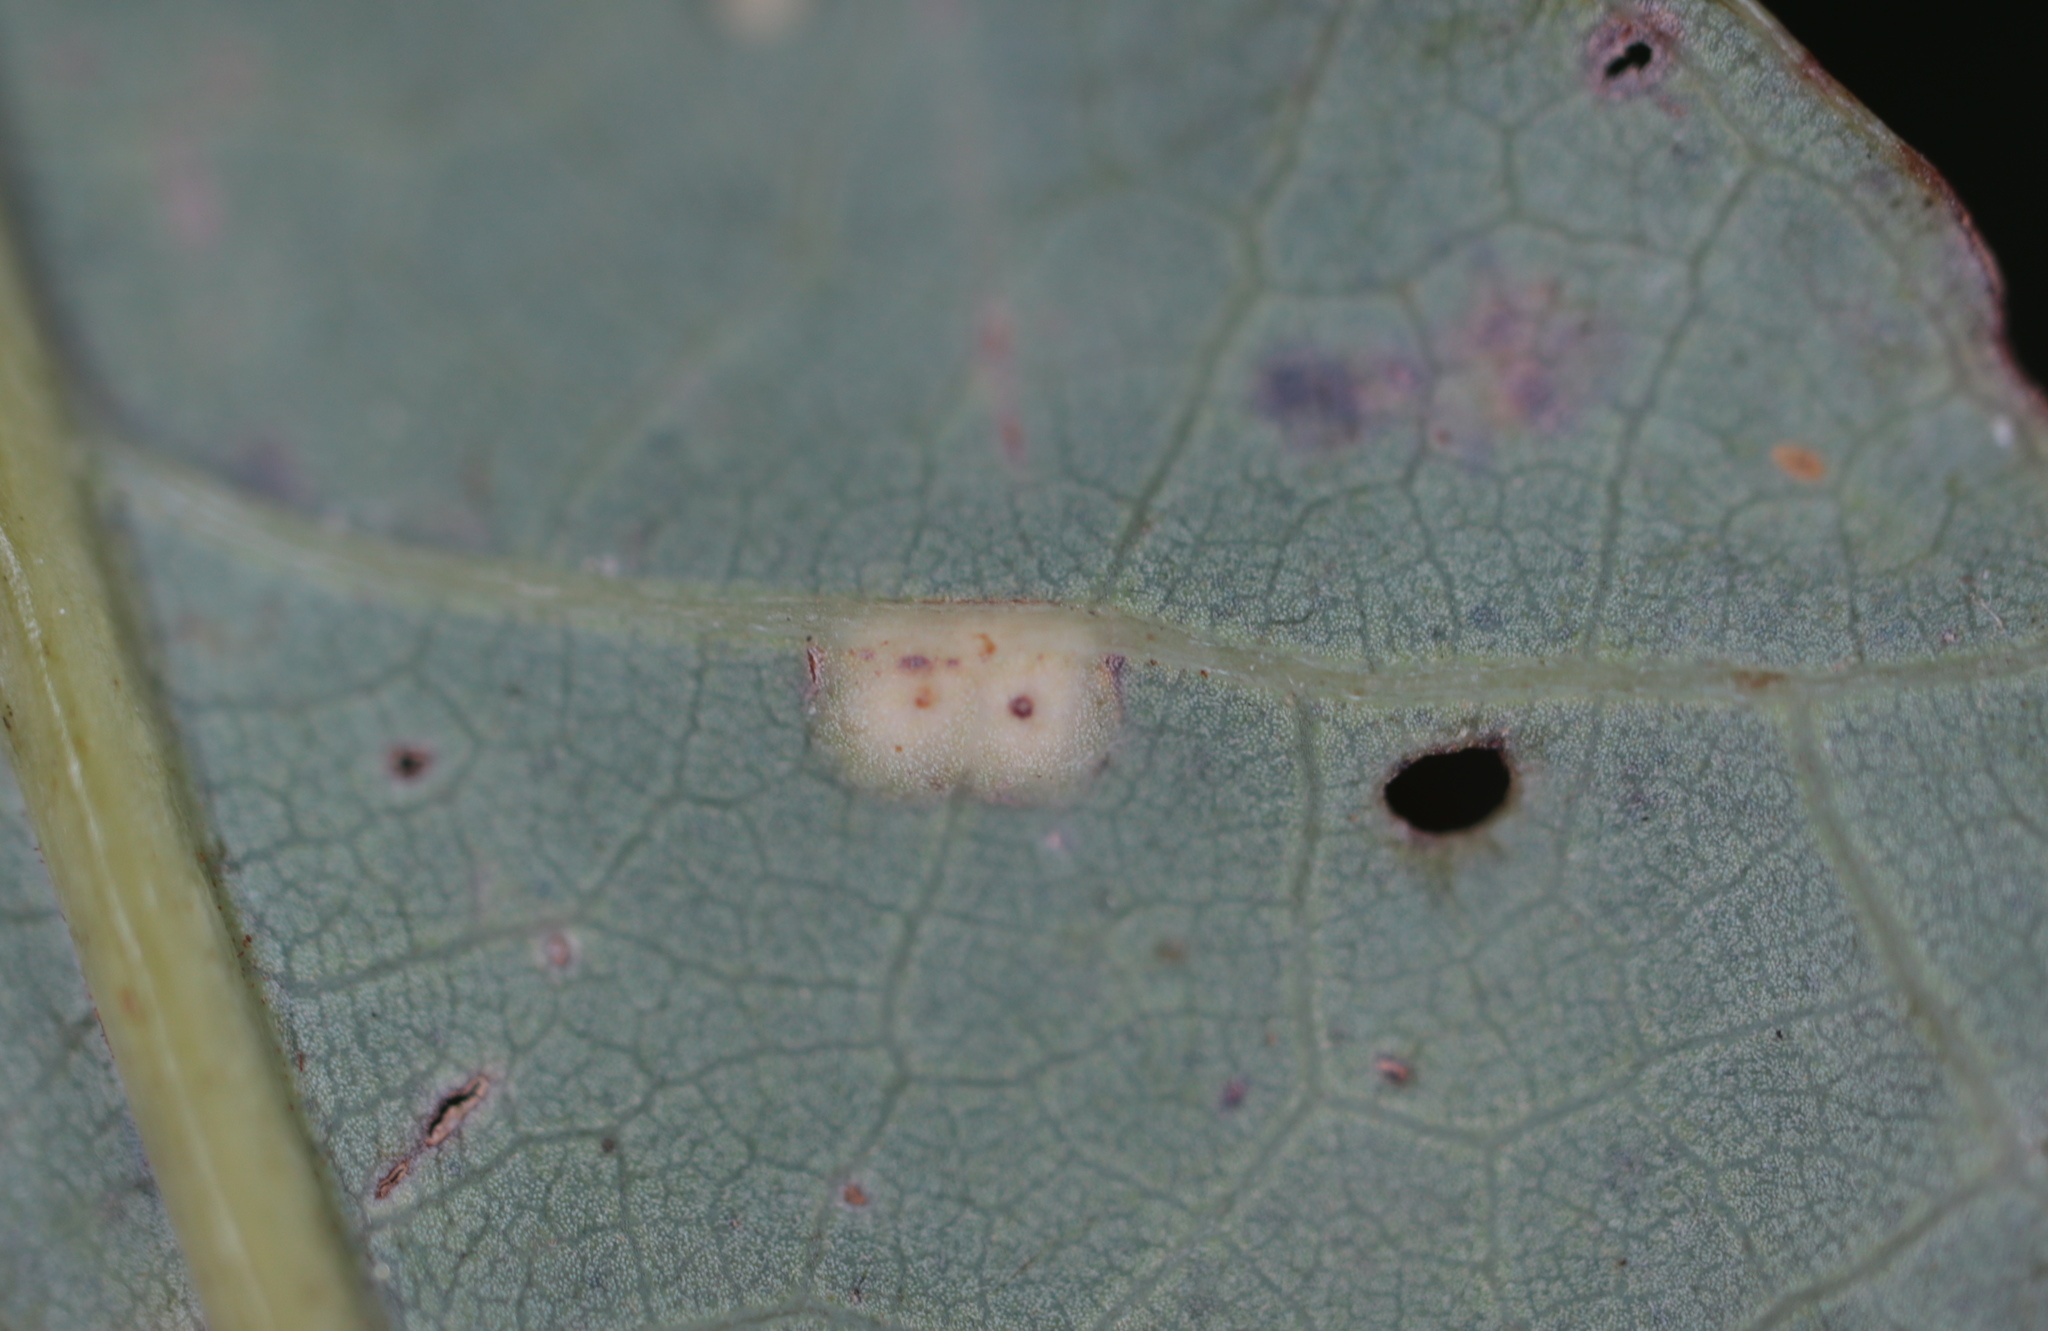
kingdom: Animalia
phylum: Arthropoda
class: Insecta
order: Hymenoptera
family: Cynipidae
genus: Neuroterus
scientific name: Neuroterus niger
